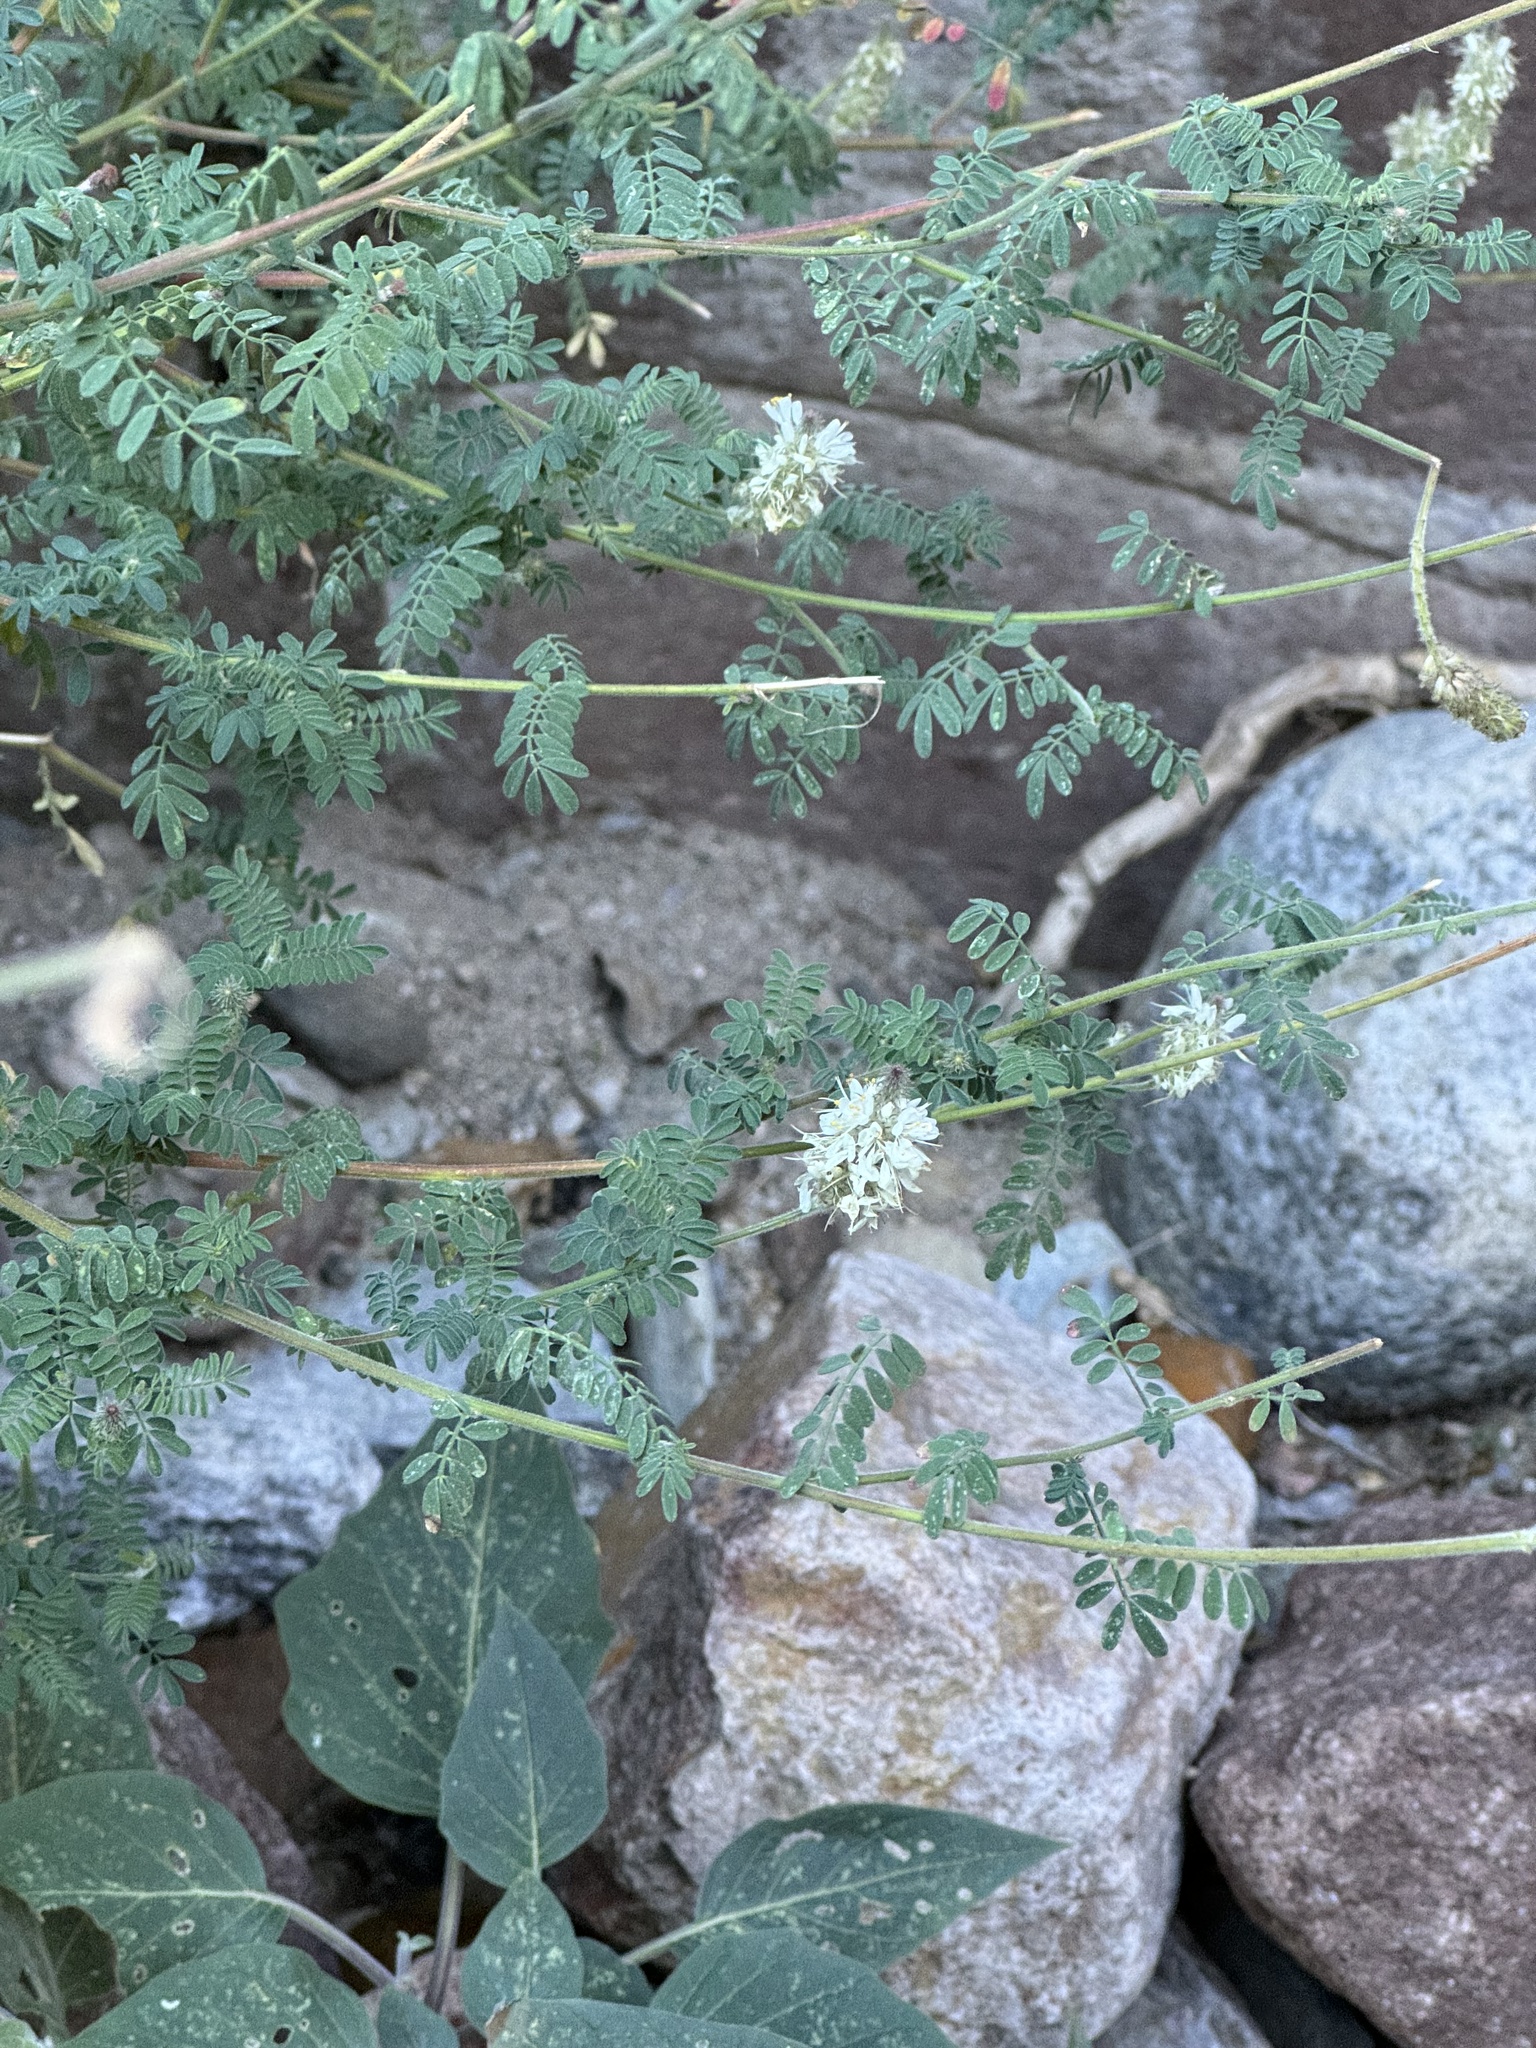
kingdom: Plantae
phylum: Tracheophyta
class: Magnoliopsida
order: Fabales
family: Fabaceae
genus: Dalea
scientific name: Dalea albiflora
